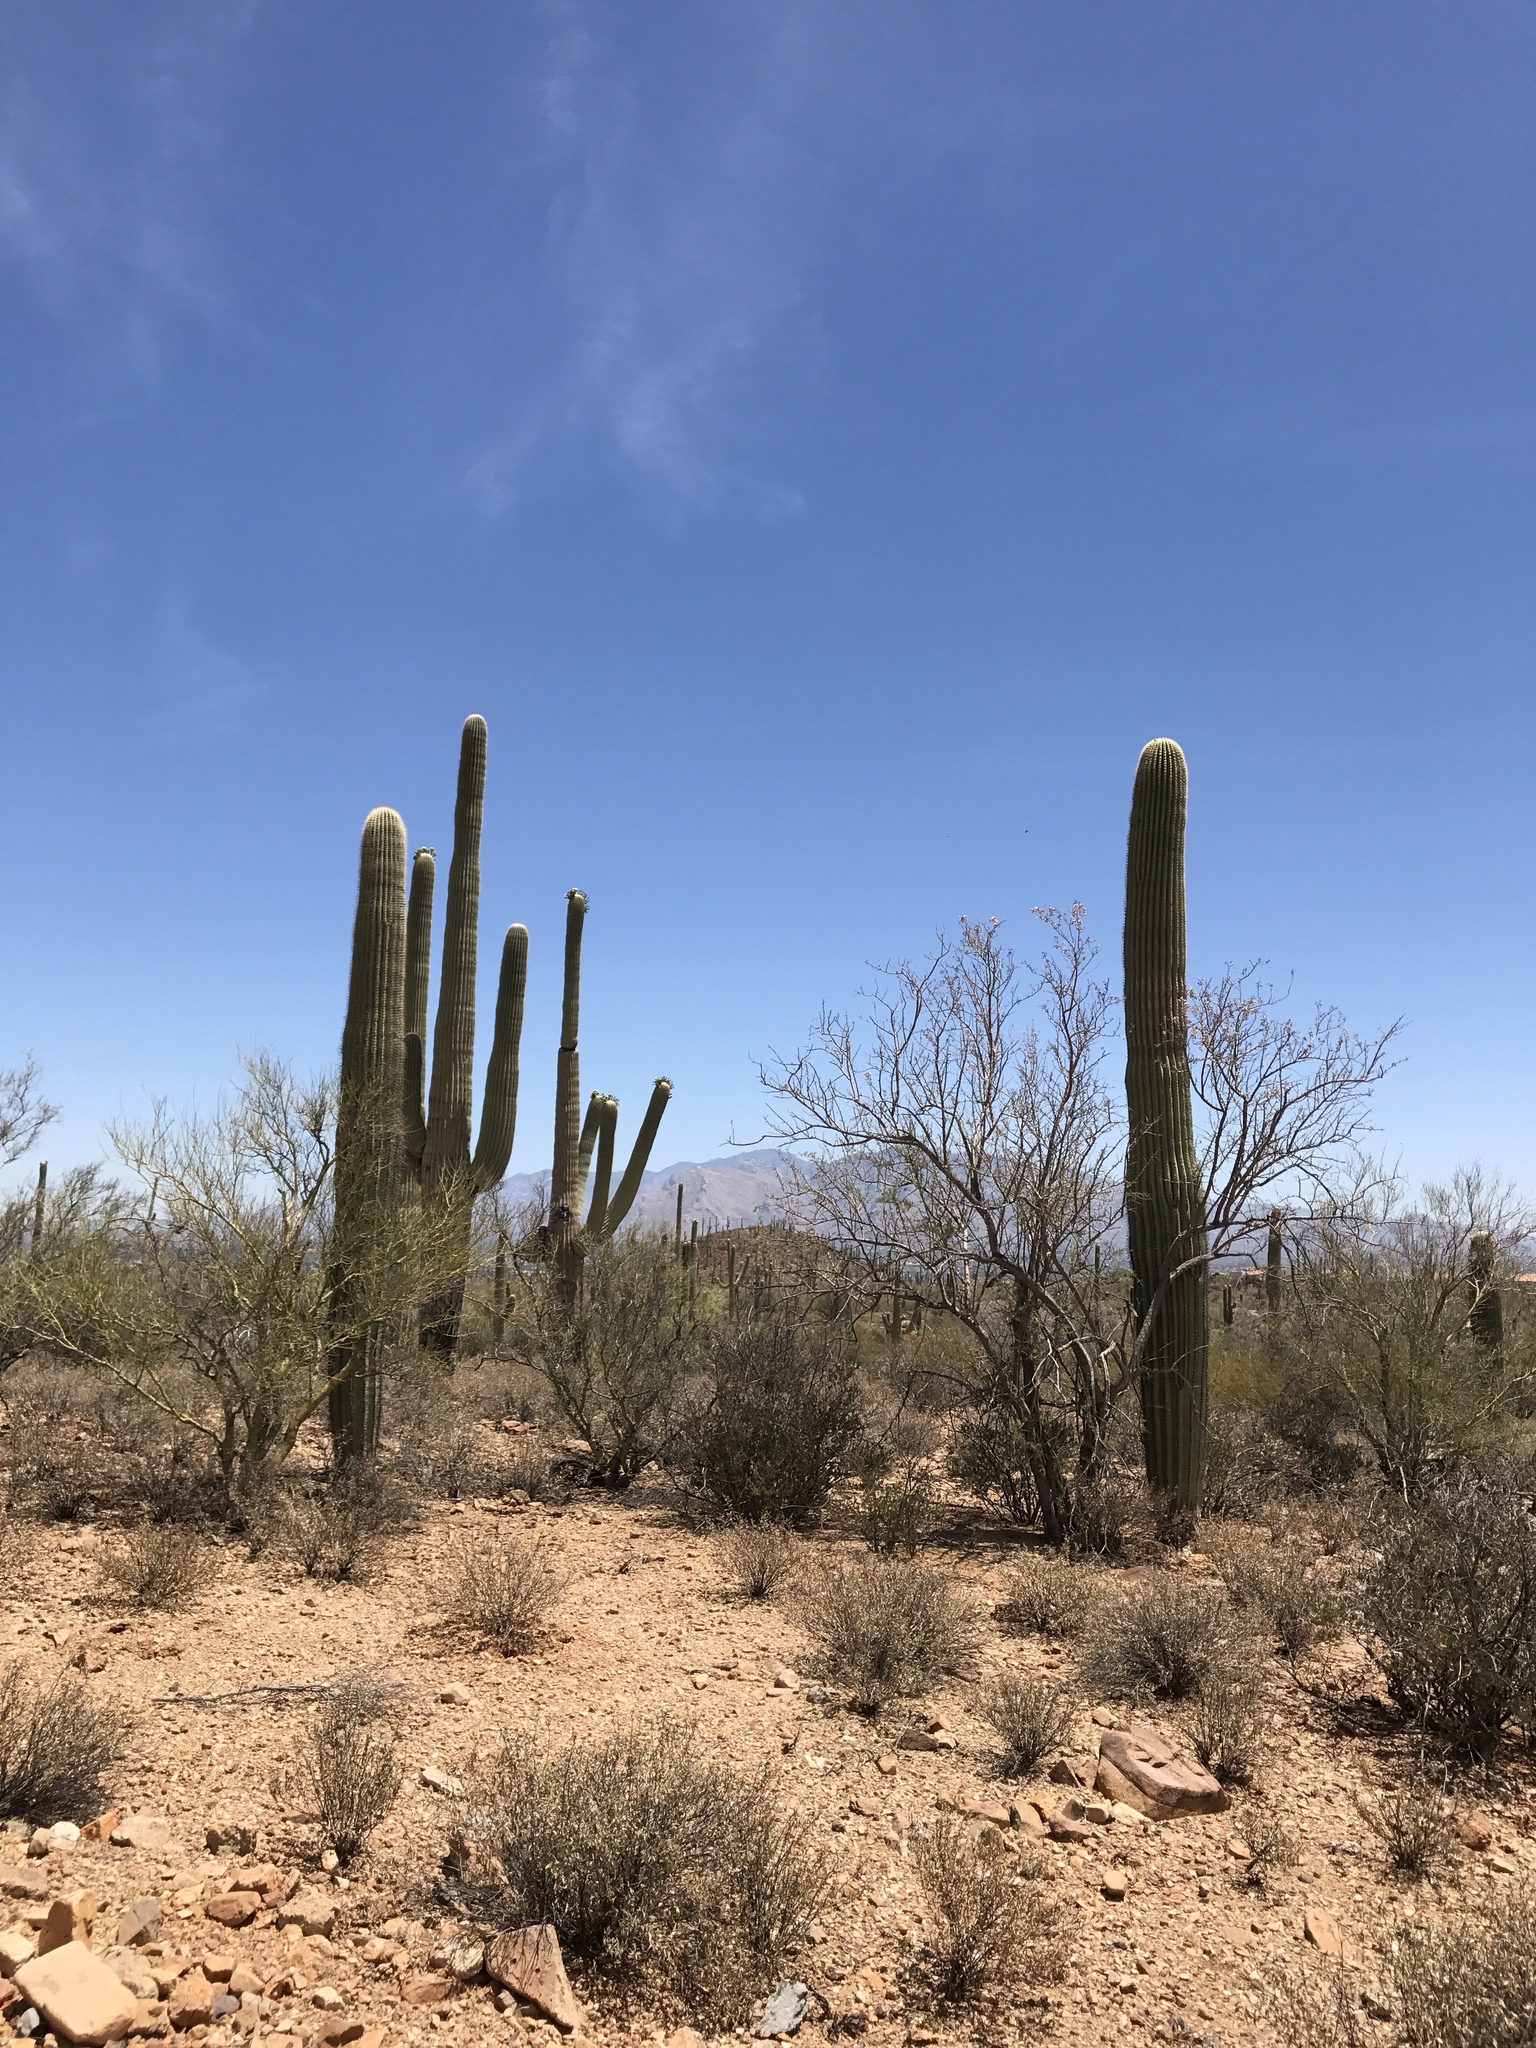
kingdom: Plantae
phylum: Tracheophyta
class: Magnoliopsida
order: Caryophyllales
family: Cactaceae
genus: Carnegiea
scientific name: Carnegiea gigantea
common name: Saguaro
